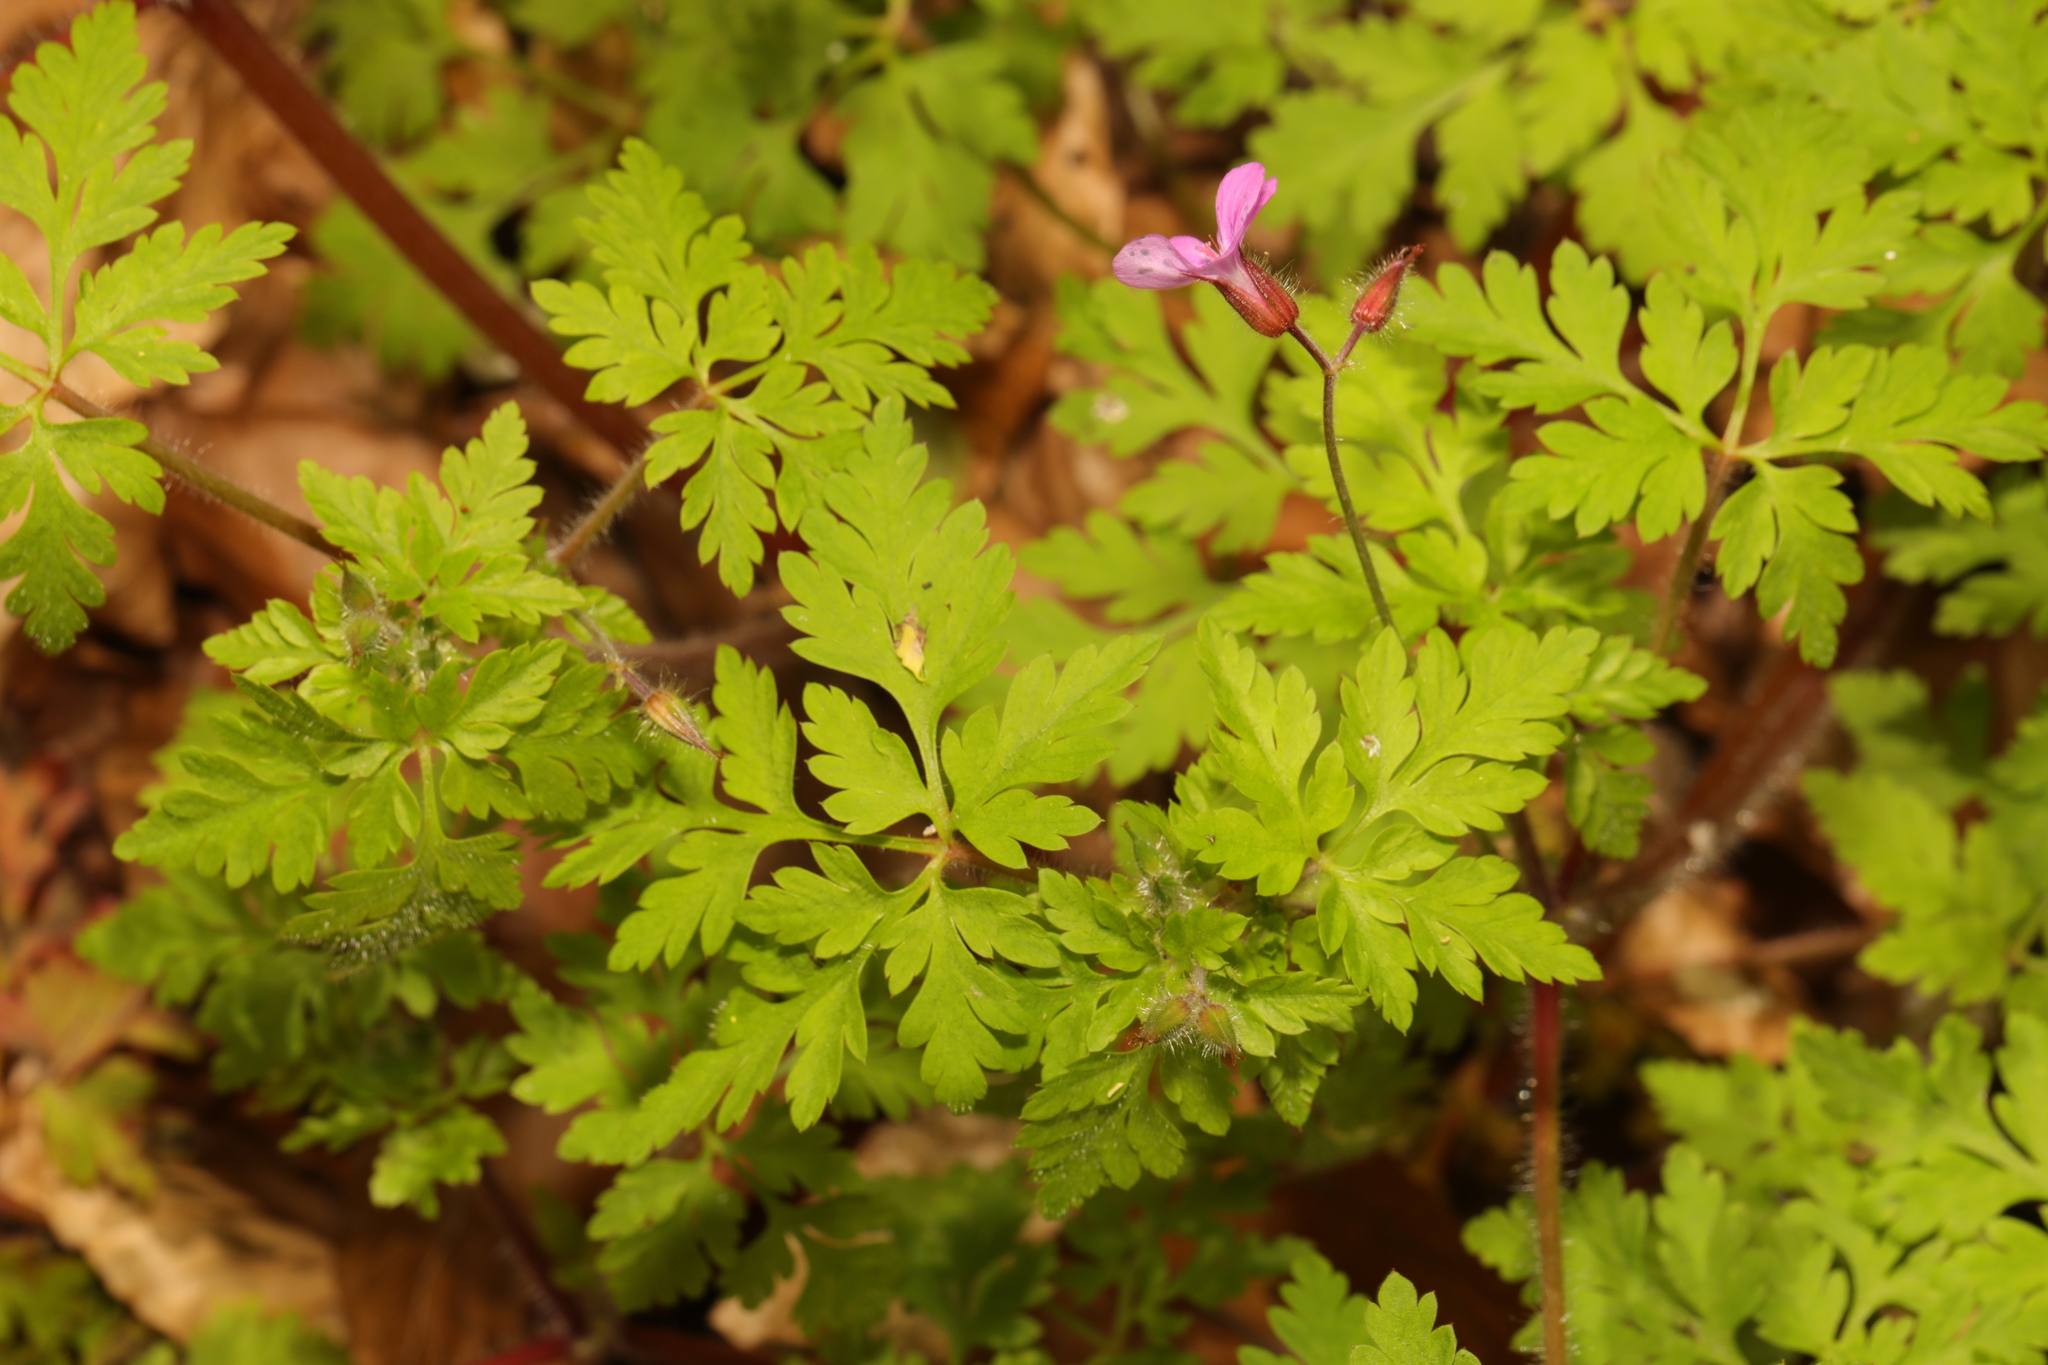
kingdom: Plantae
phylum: Tracheophyta
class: Magnoliopsida
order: Geraniales
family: Geraniaceae
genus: Geranium
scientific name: Geranium robertianum
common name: Herb-robert
